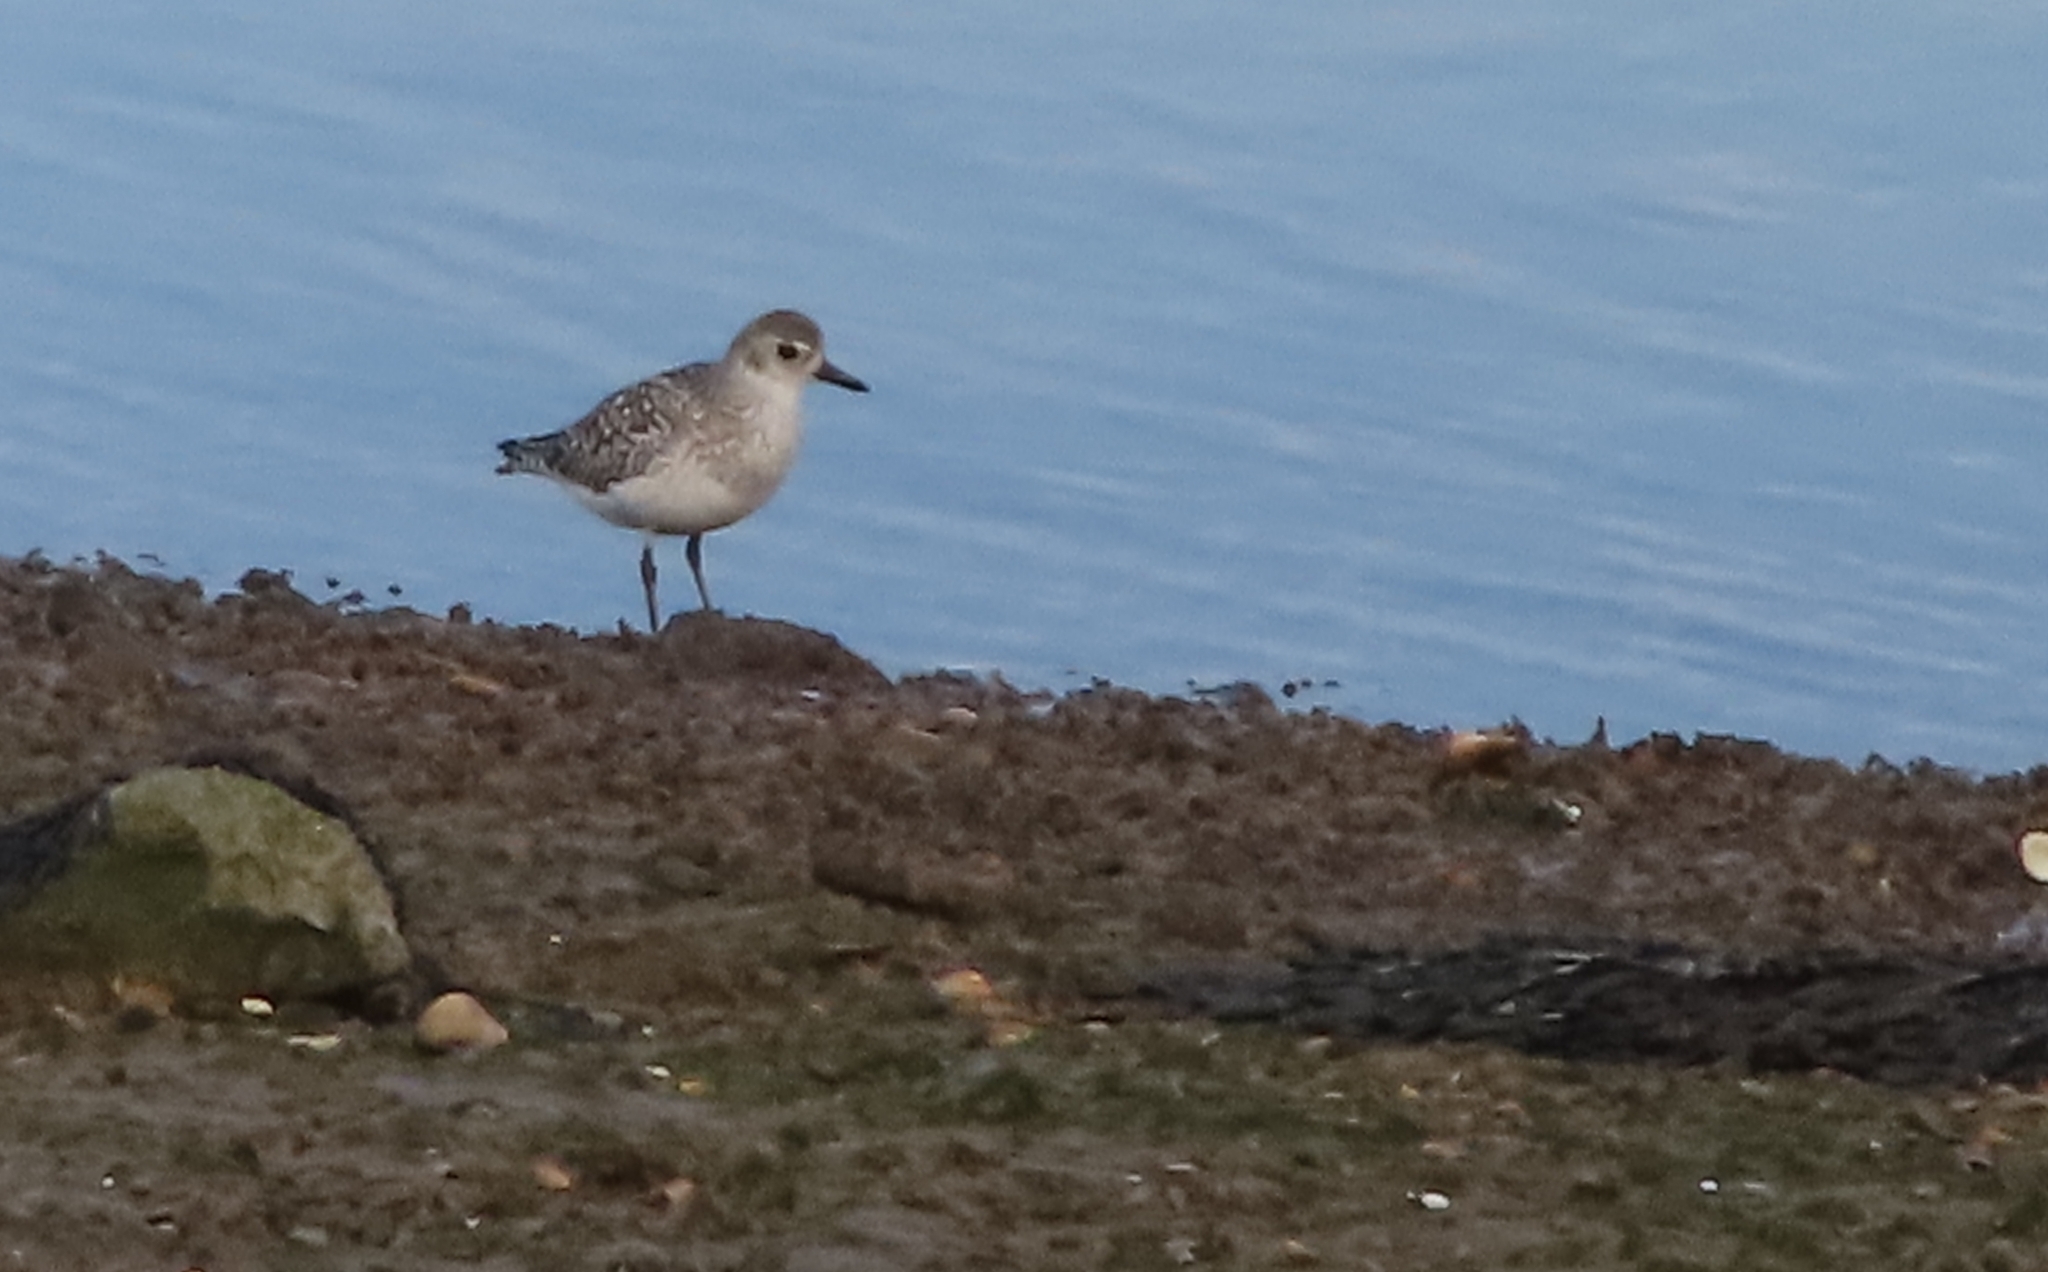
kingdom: Animalia
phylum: Chordata
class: Aves
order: Charadriiformes
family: Charadriidae
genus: Pluvialis
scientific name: Pluvialis squatarola
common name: Grey plover
